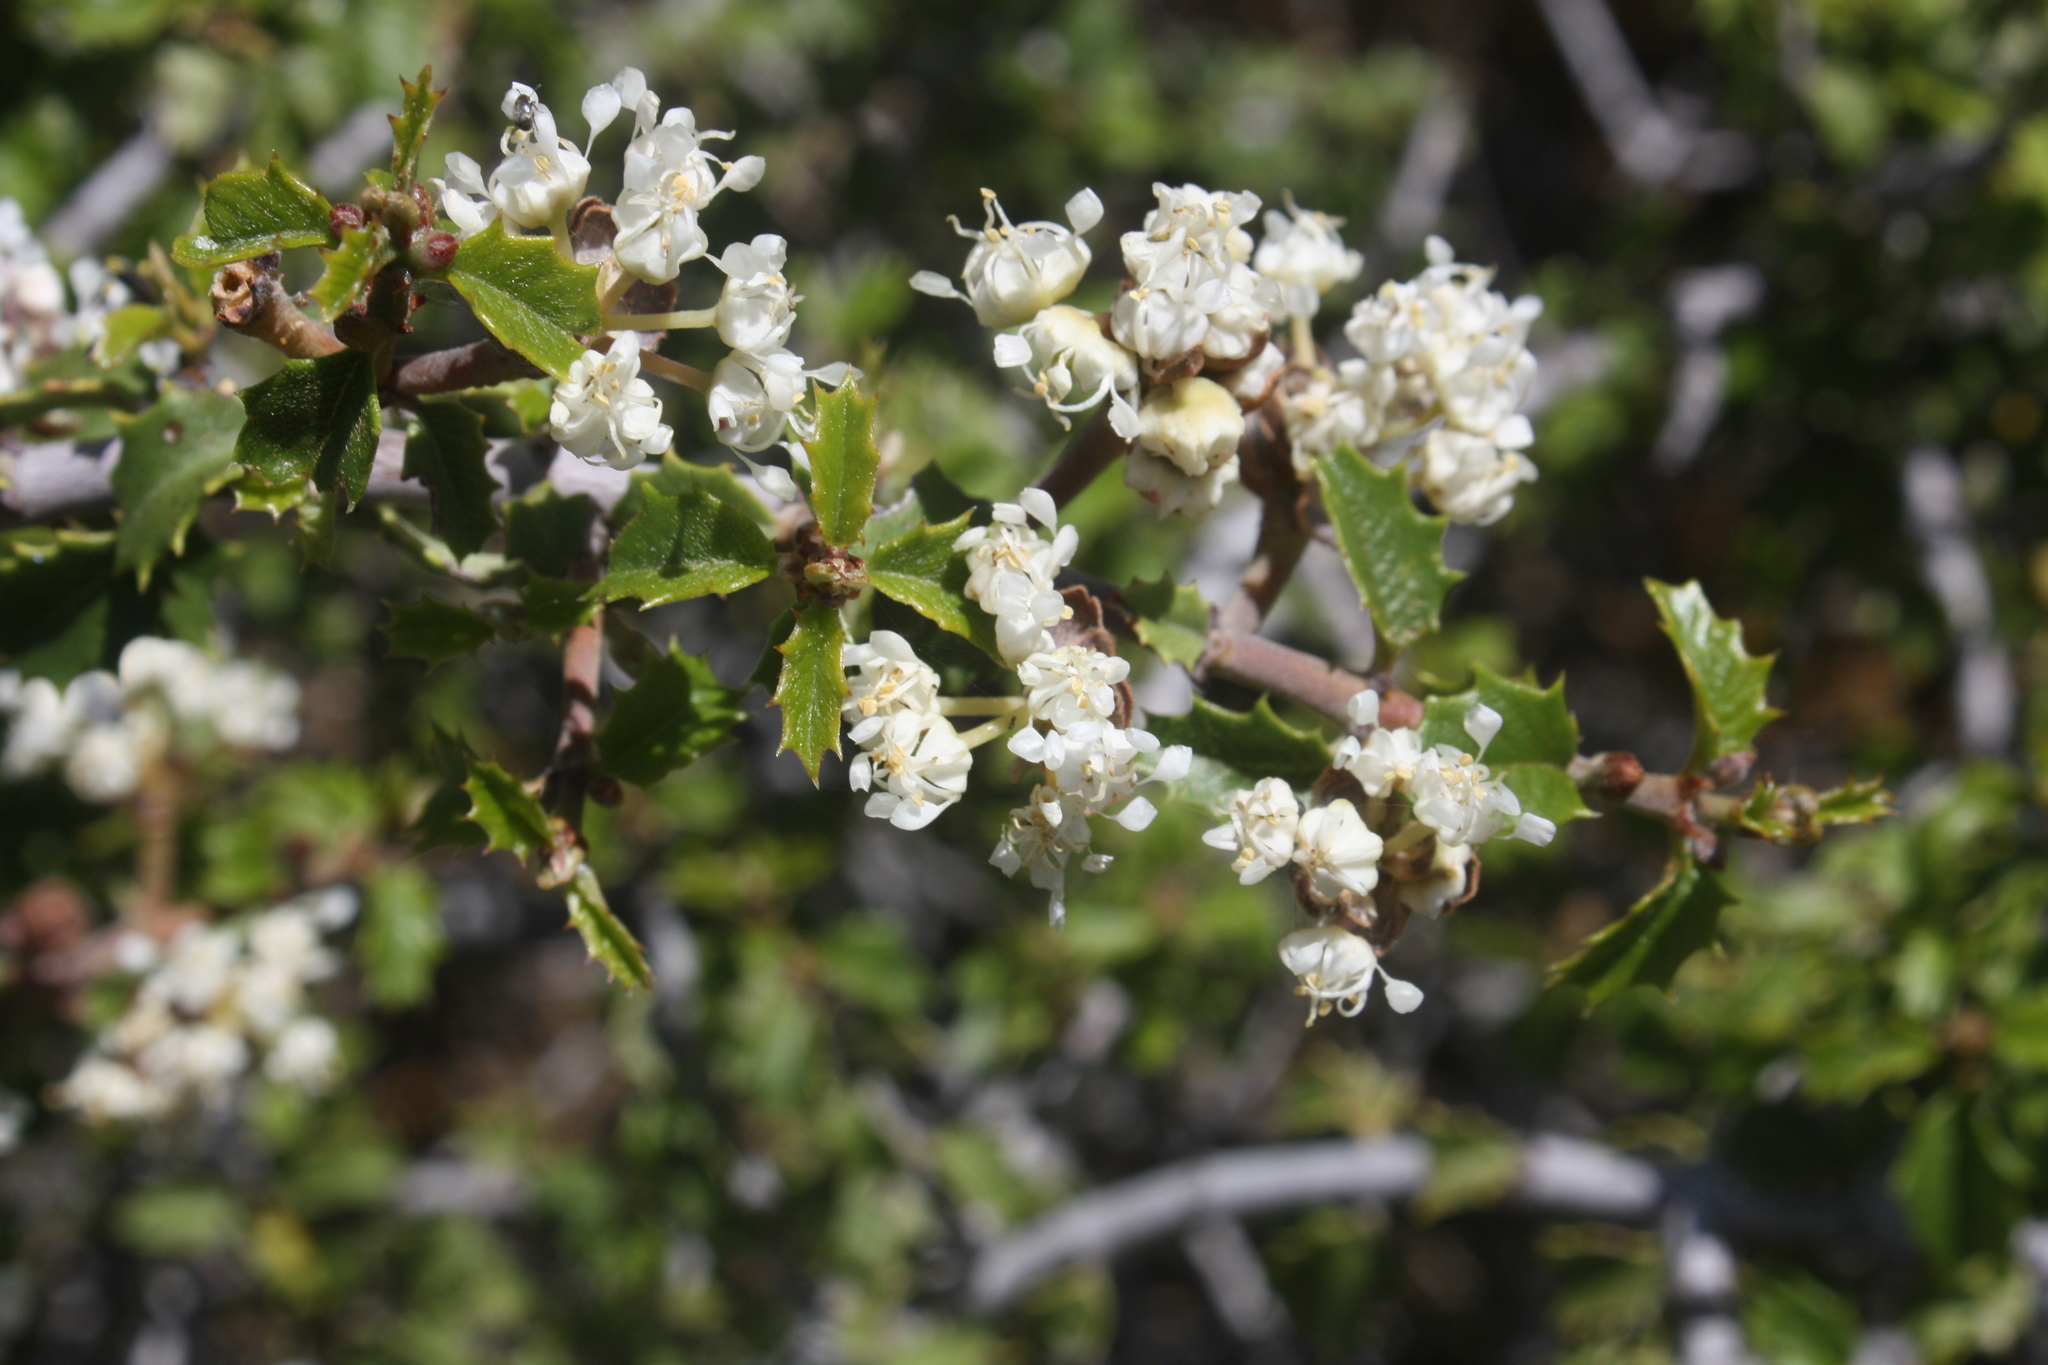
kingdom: Plantae
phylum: Tracheophyta
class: Magnoliopsida
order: Rosales
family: Rhamnaceae
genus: Ceanothus
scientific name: Ceanothus jepsonii
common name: Muskbrush
